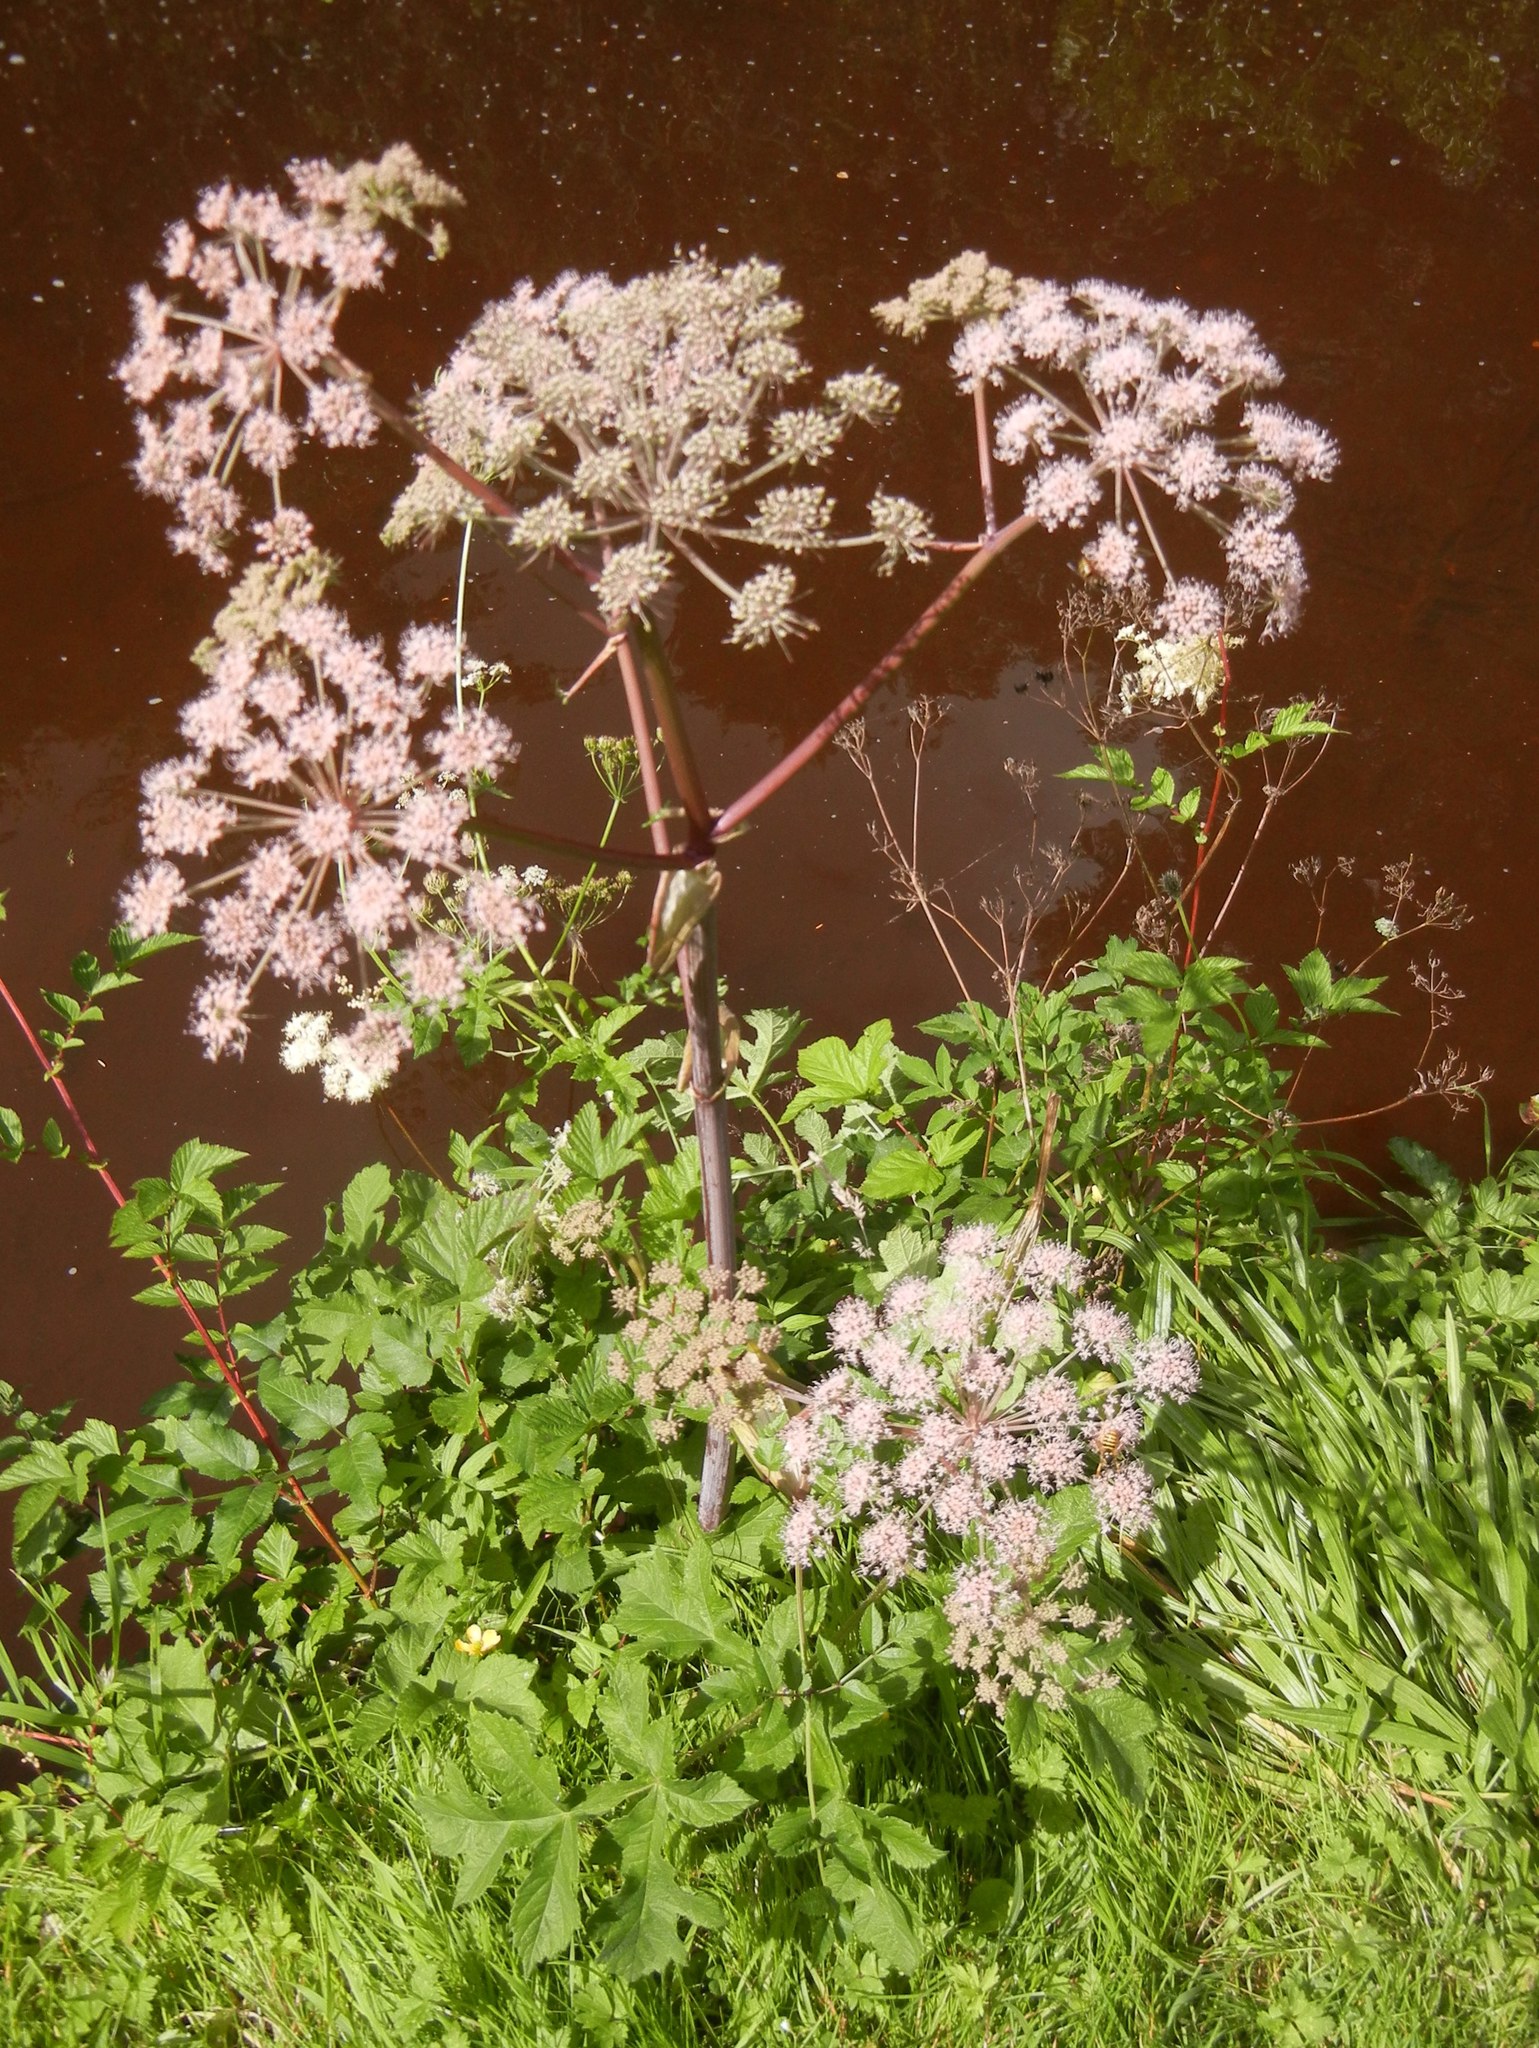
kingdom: Plantae
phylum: Tracheophyta
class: Magnoliopsida
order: Apiales
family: Apiaceae
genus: Angelica
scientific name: Angelica sylvestris
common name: Wild angelica
